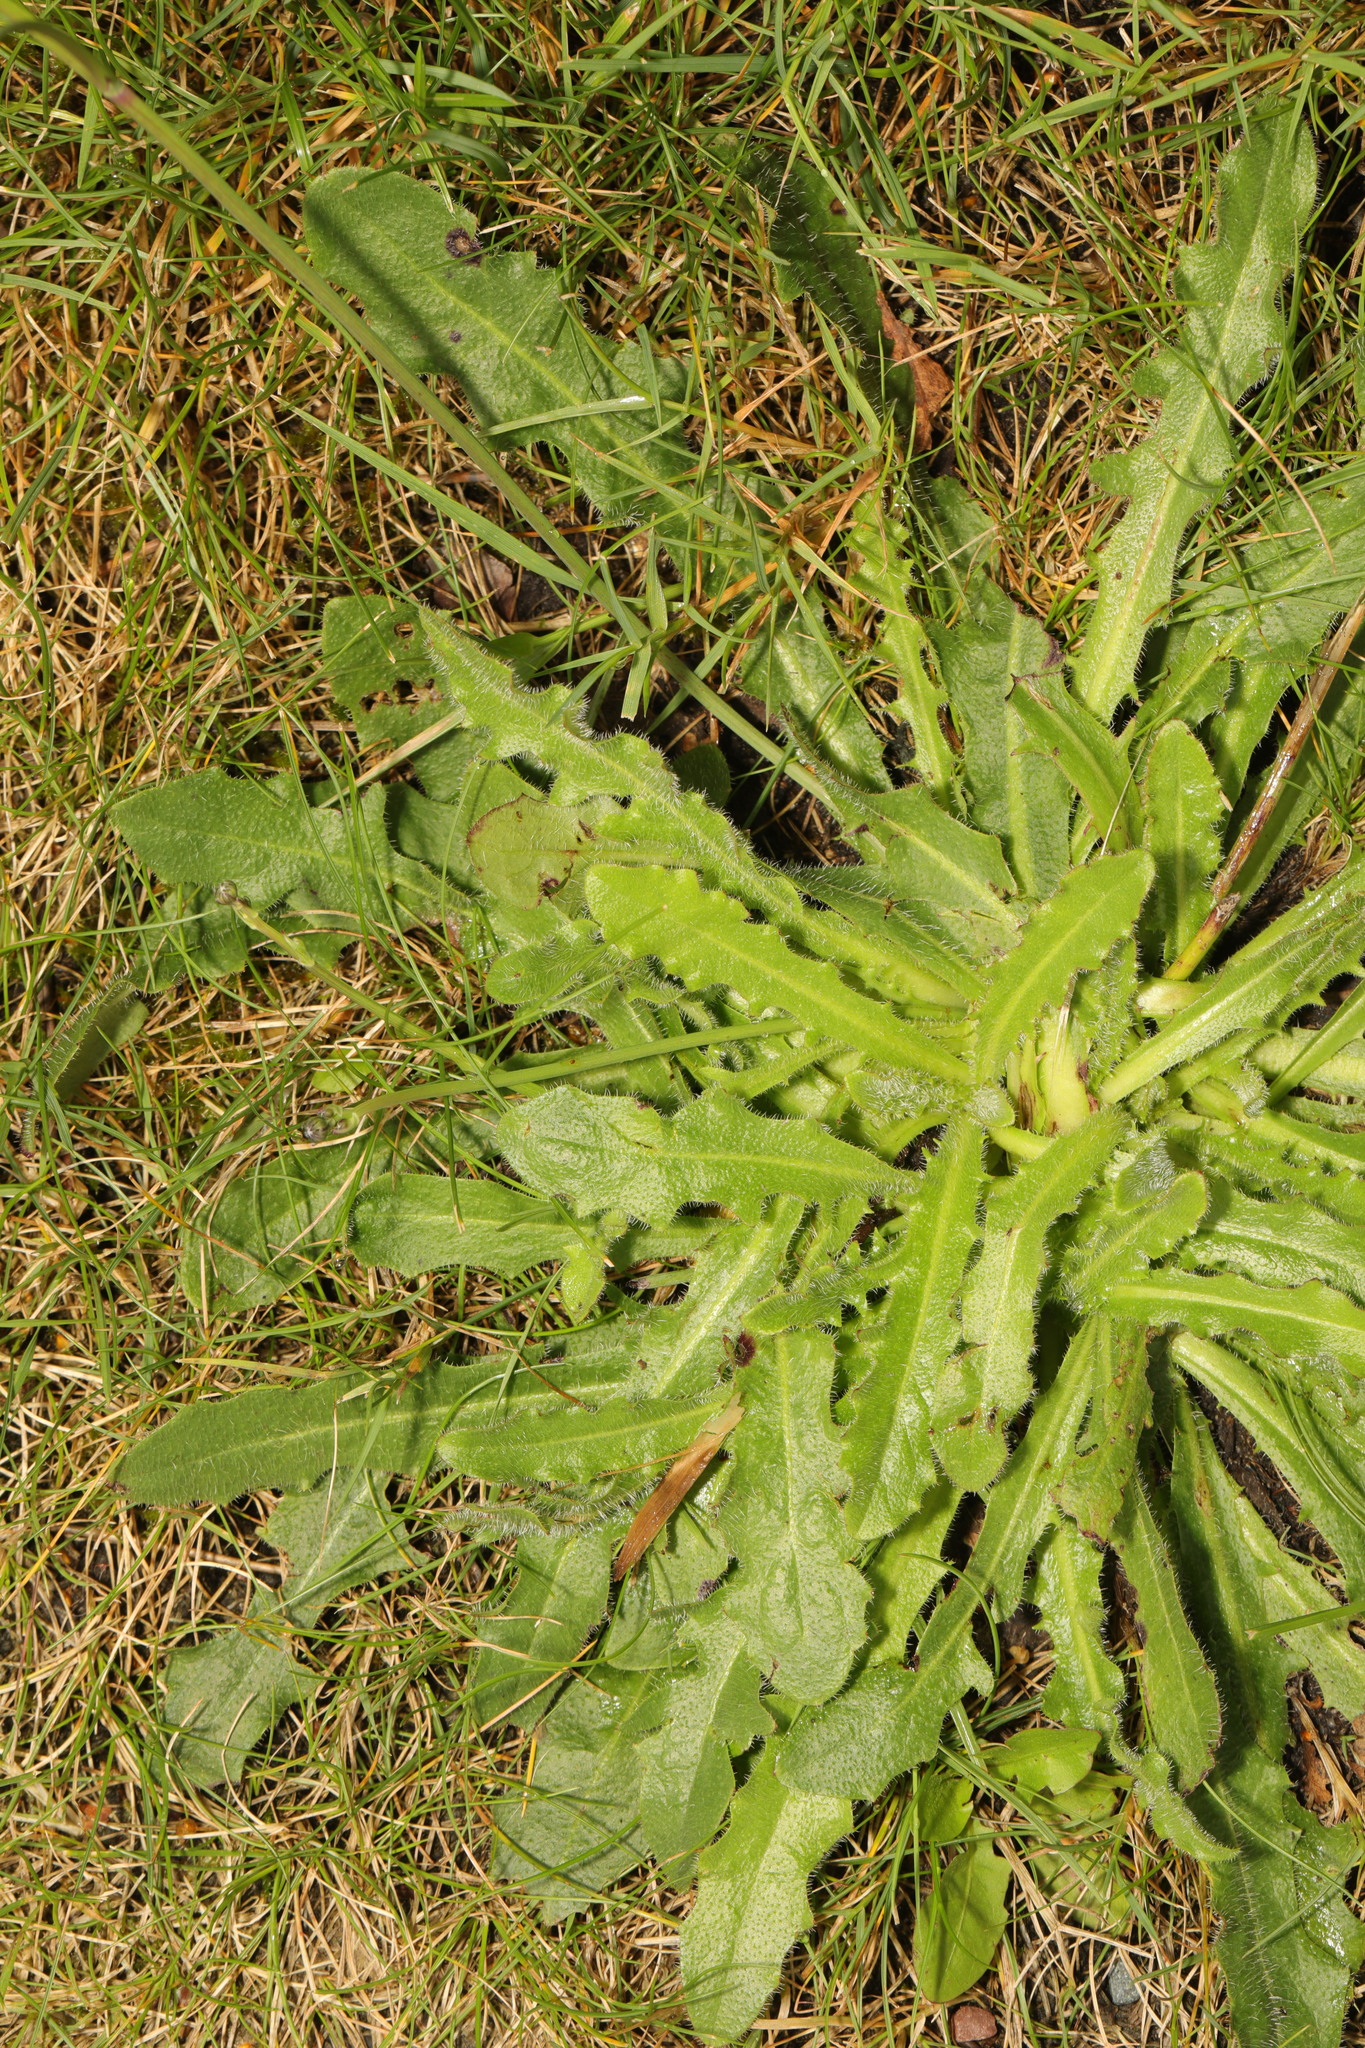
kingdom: Plantae
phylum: Tracheophyta
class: Magnoliopsida
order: Asterales
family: Asteraceae
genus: Hypochaeris
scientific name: Hypochaeris radicata
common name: Flatweed
